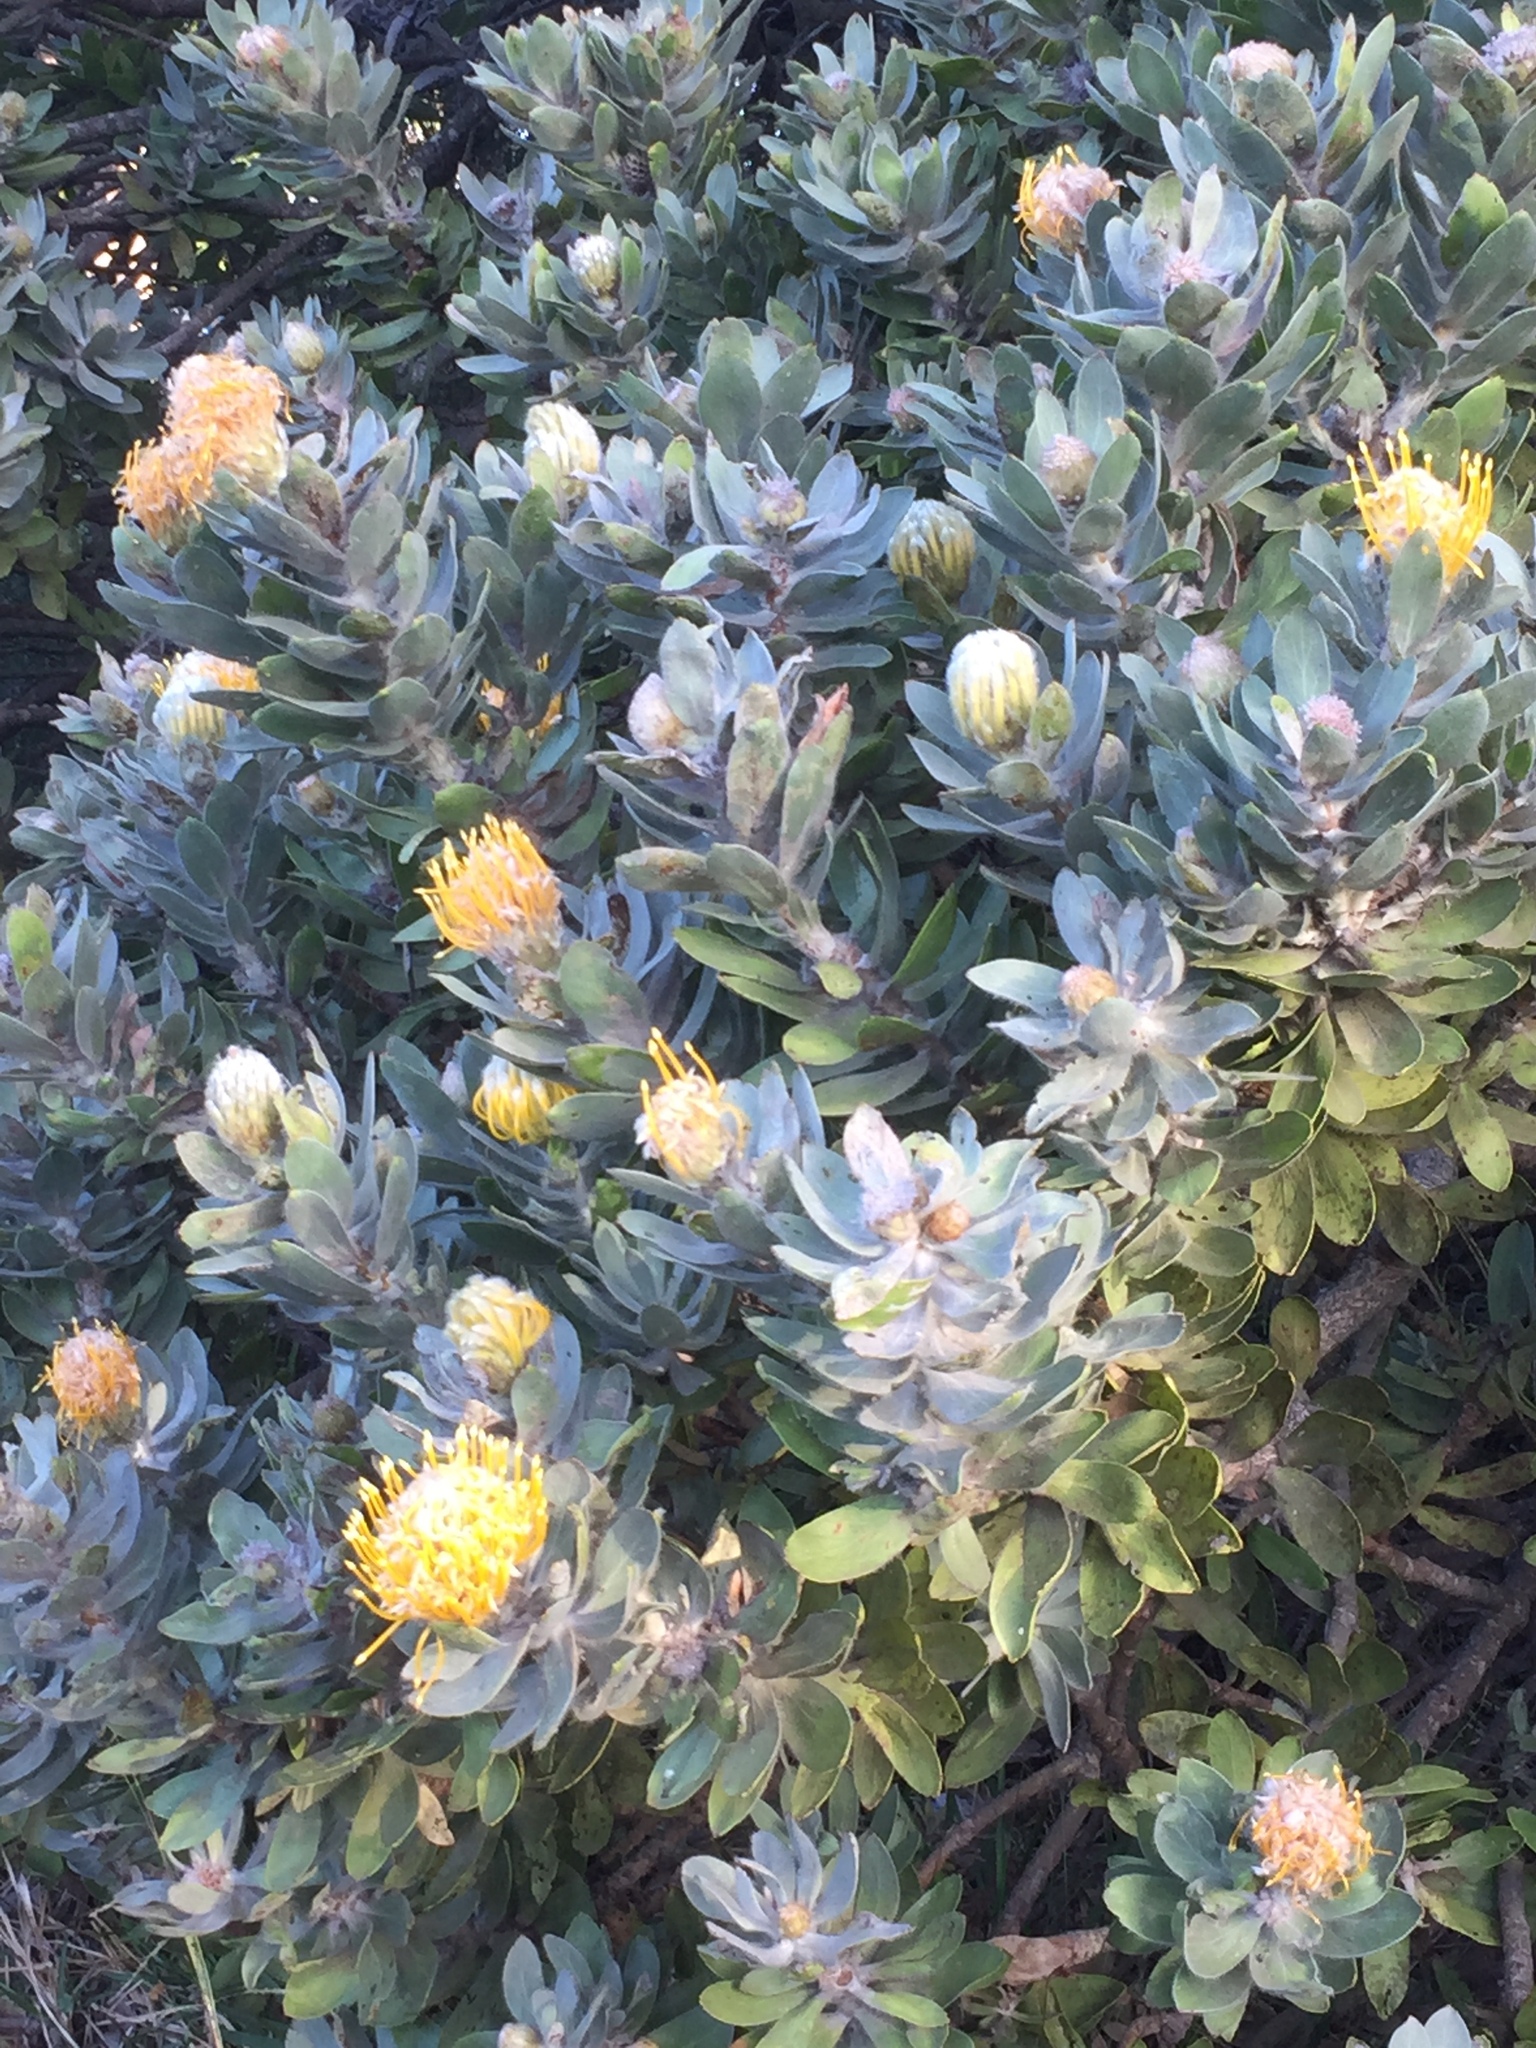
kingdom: Plantae
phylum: Tracheophyta
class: Magnoliopsida
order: Proteales
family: Proteaceae
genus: Leucospermum
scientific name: Leucospermum conocarpodendron
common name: Tree pincushion
